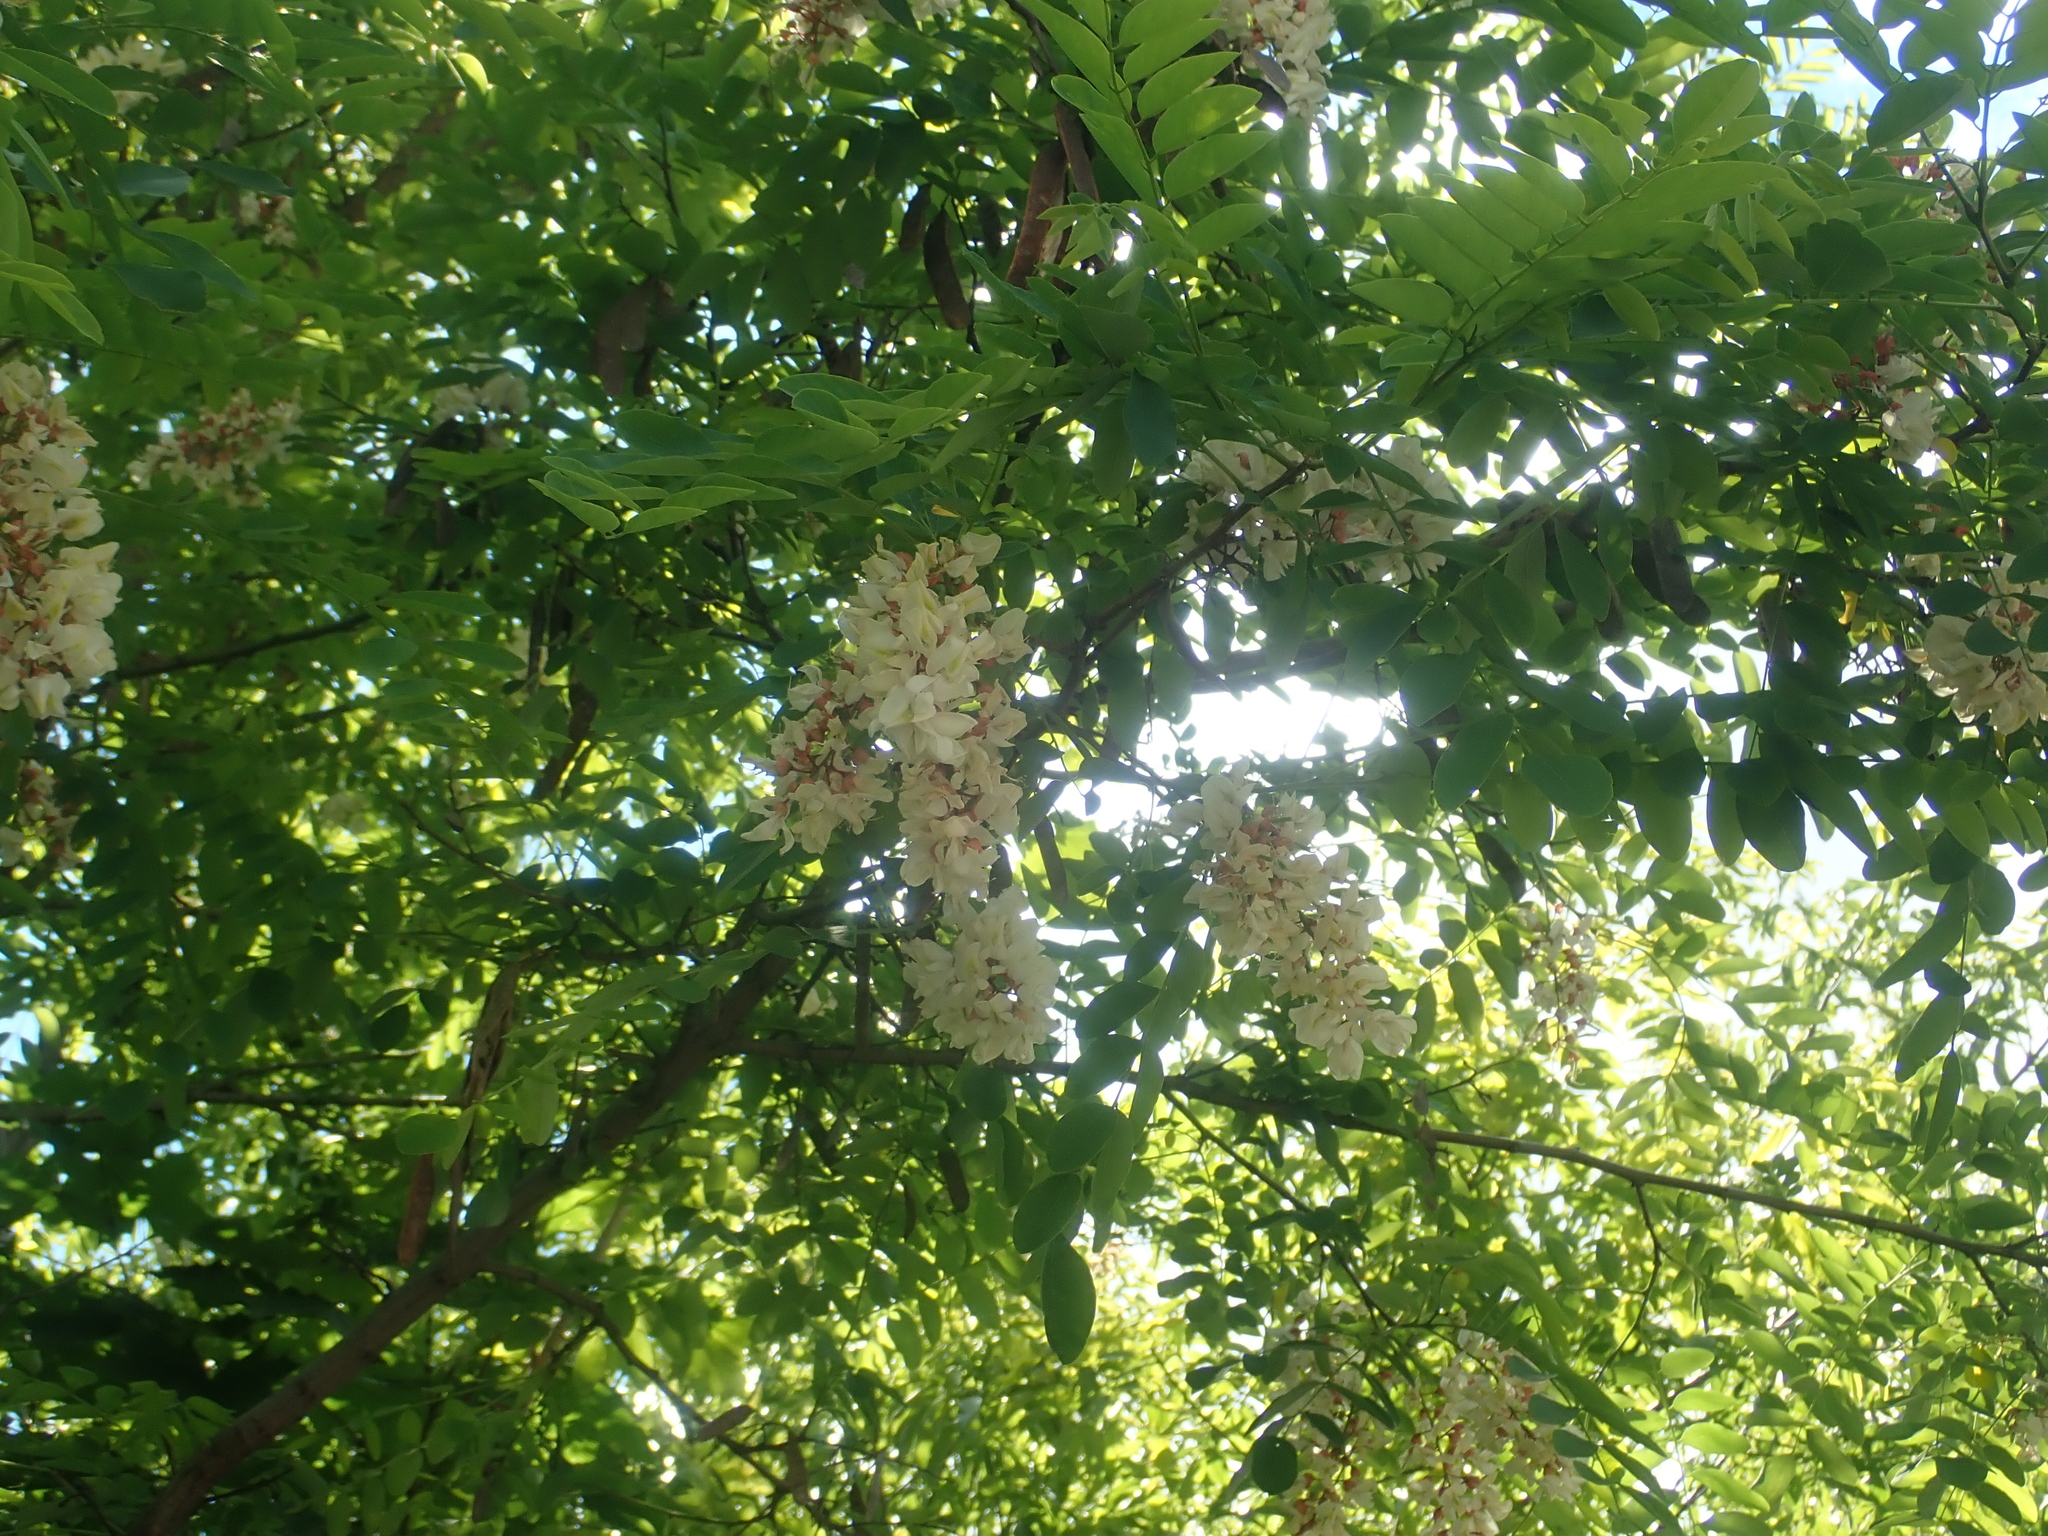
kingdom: Plantae
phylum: Tracheophyta
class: Magnoliopsida
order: Fabales
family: Fabaceae
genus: Robinia
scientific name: Robinia pseudoacacia
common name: Black locust
